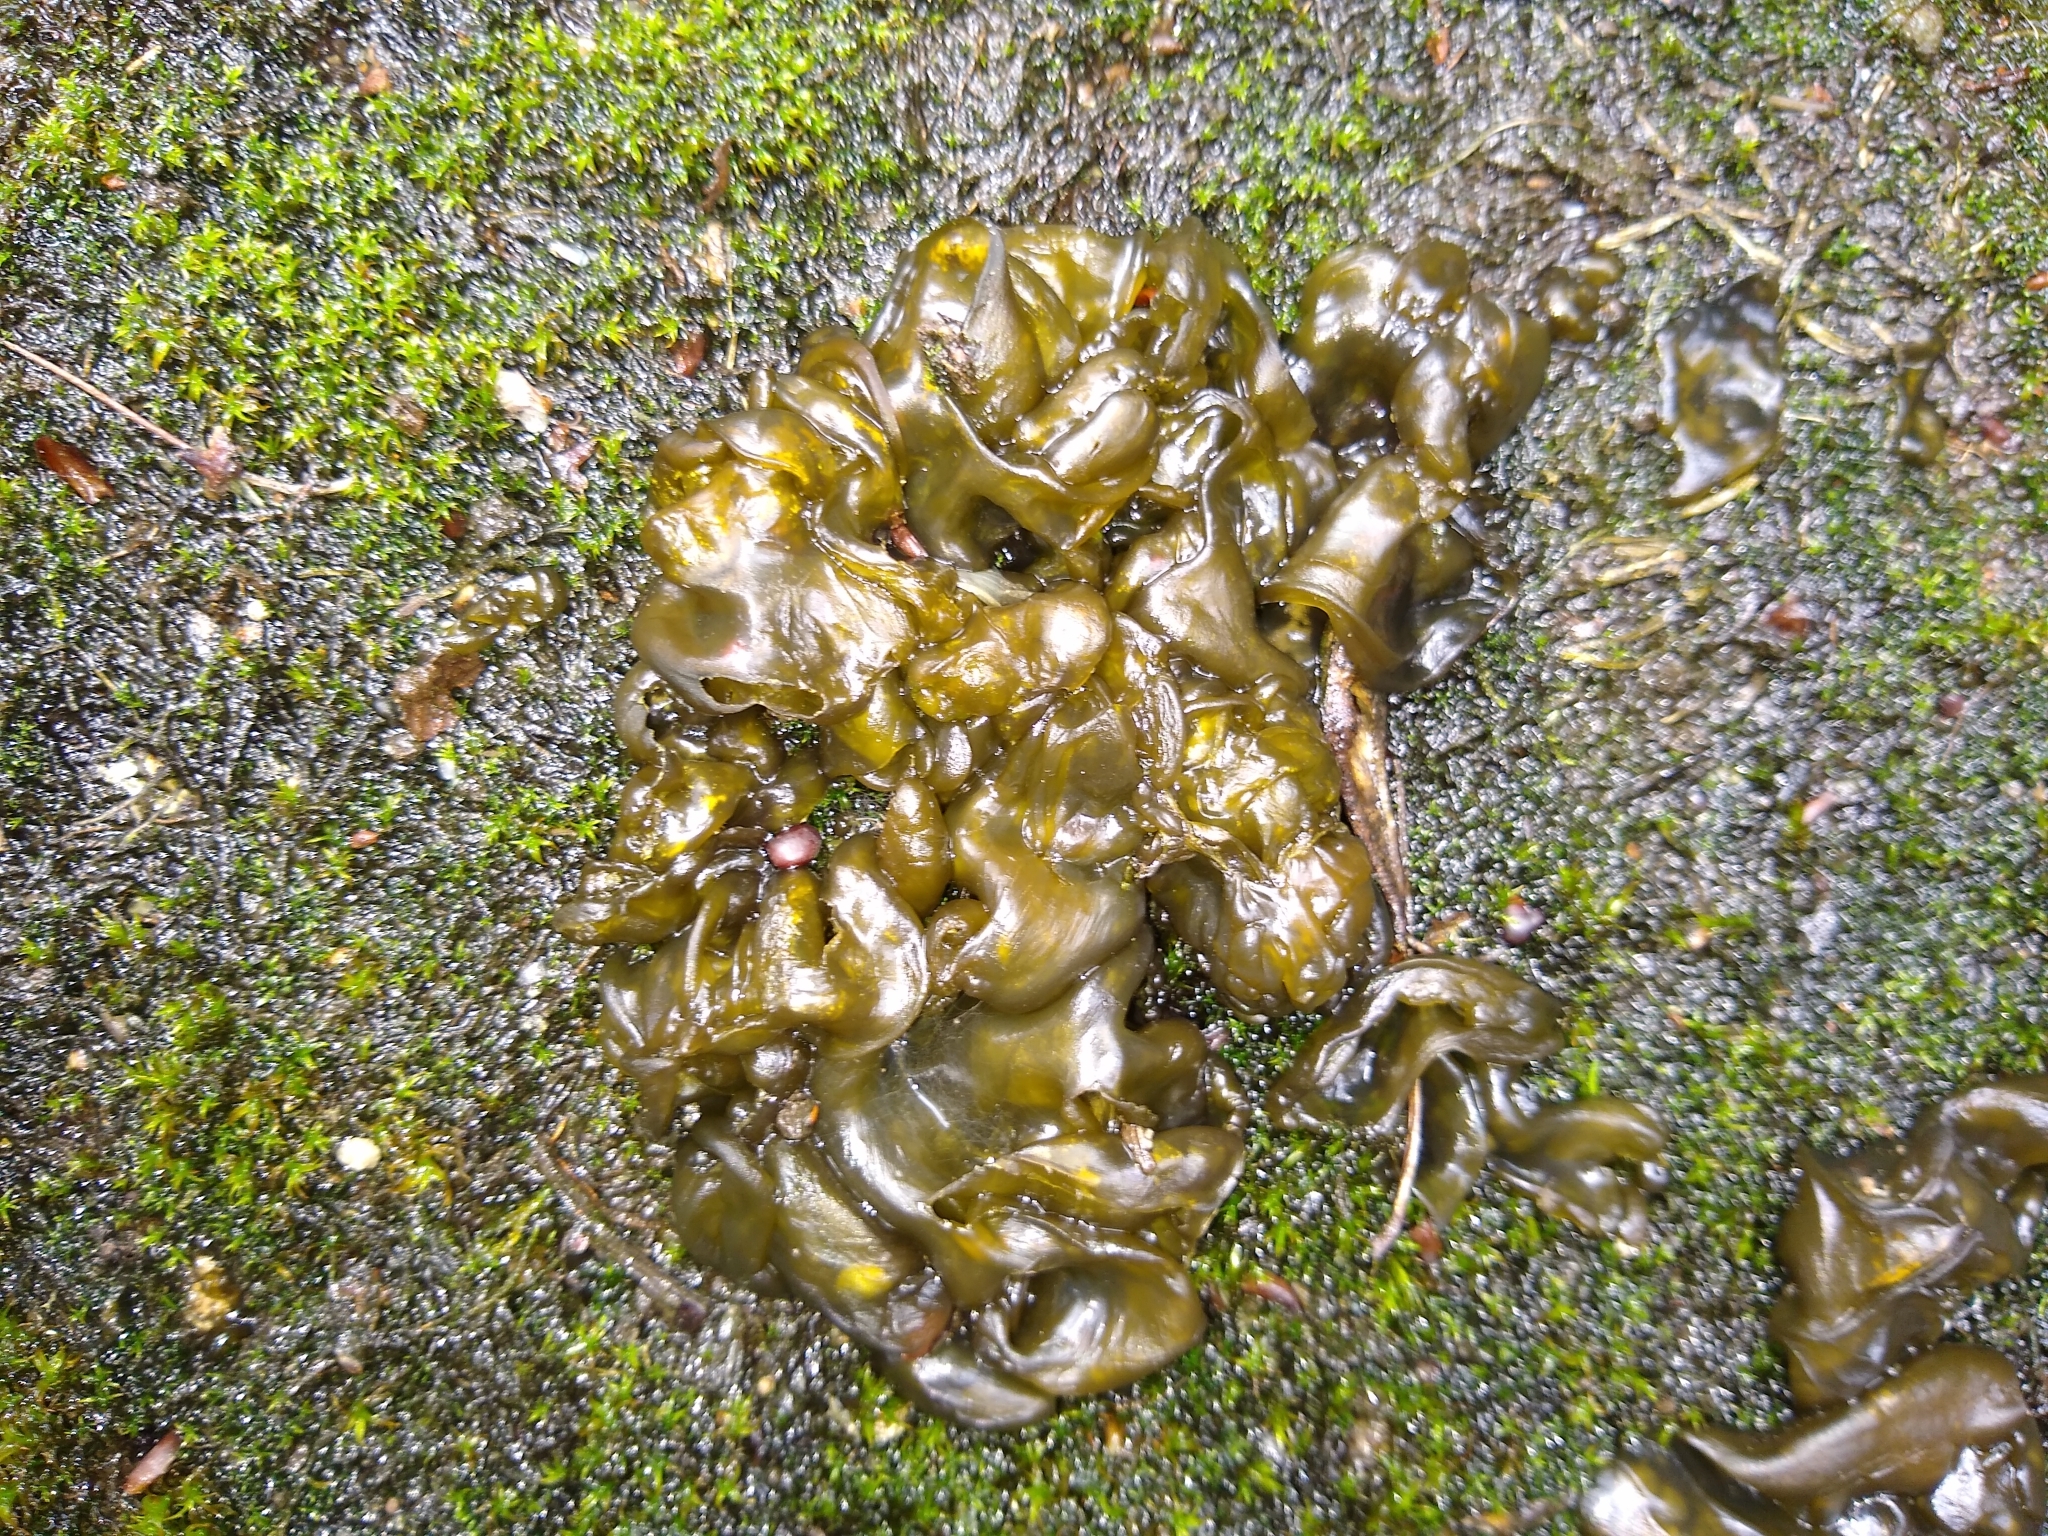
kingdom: Bacteria
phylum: Cyanobacteria
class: Cyanobacteriia
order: Cyanobacteriales
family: Nostocaceae
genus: Nostoc
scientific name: Nostoc commune
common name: Star jelly
